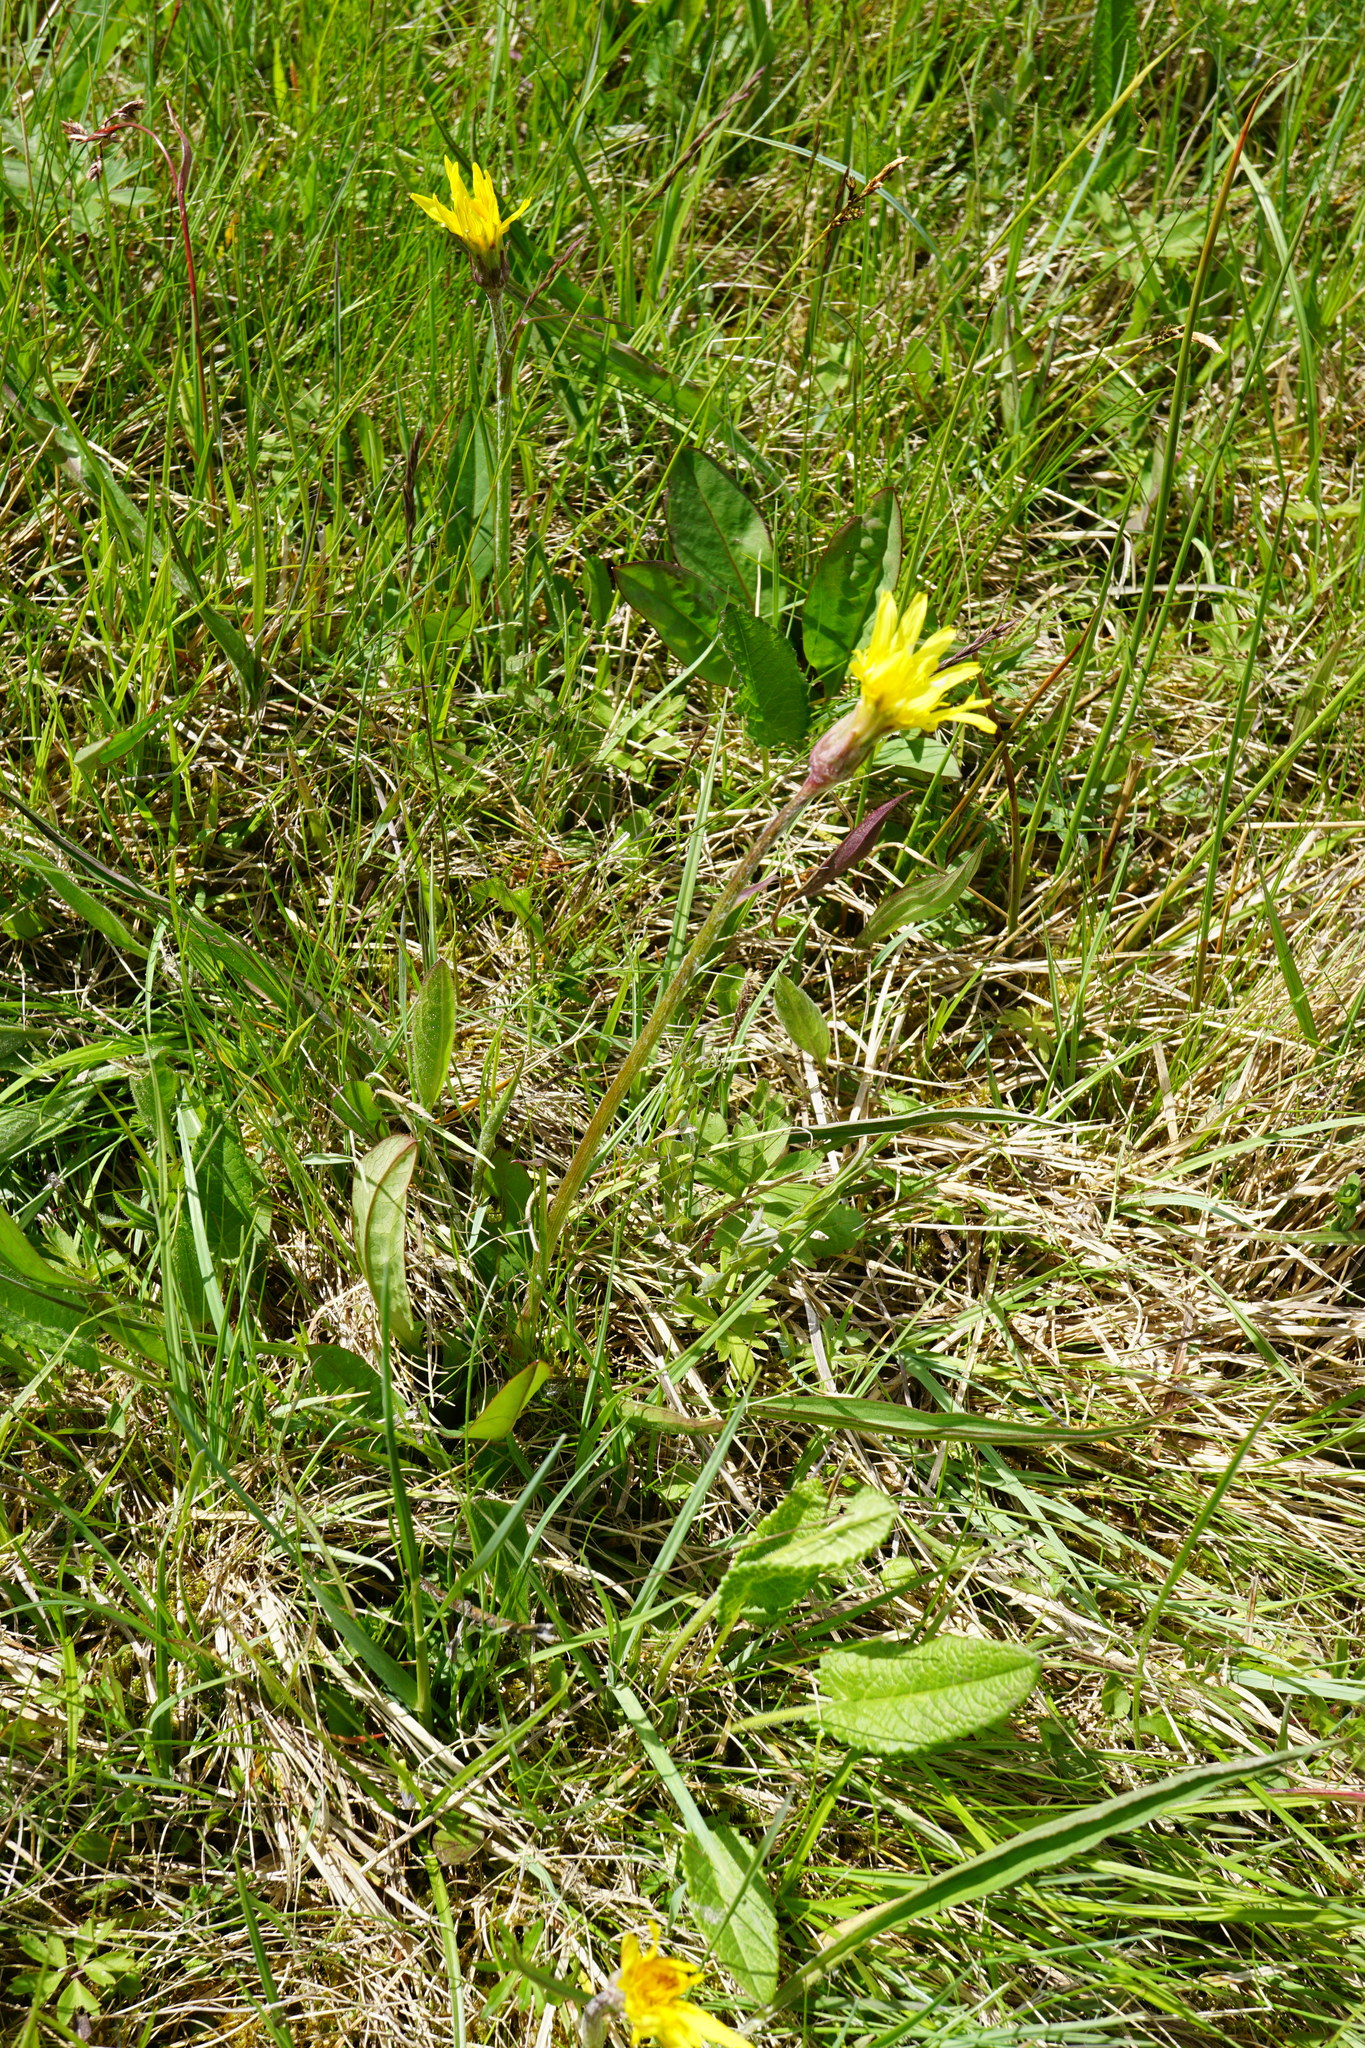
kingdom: Plantae
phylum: Tracheophyta
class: Magnoliopsida
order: Asterales
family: Asteraceae
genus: Scorzonera
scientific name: Scorzonera humilis
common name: Viper's-grass
